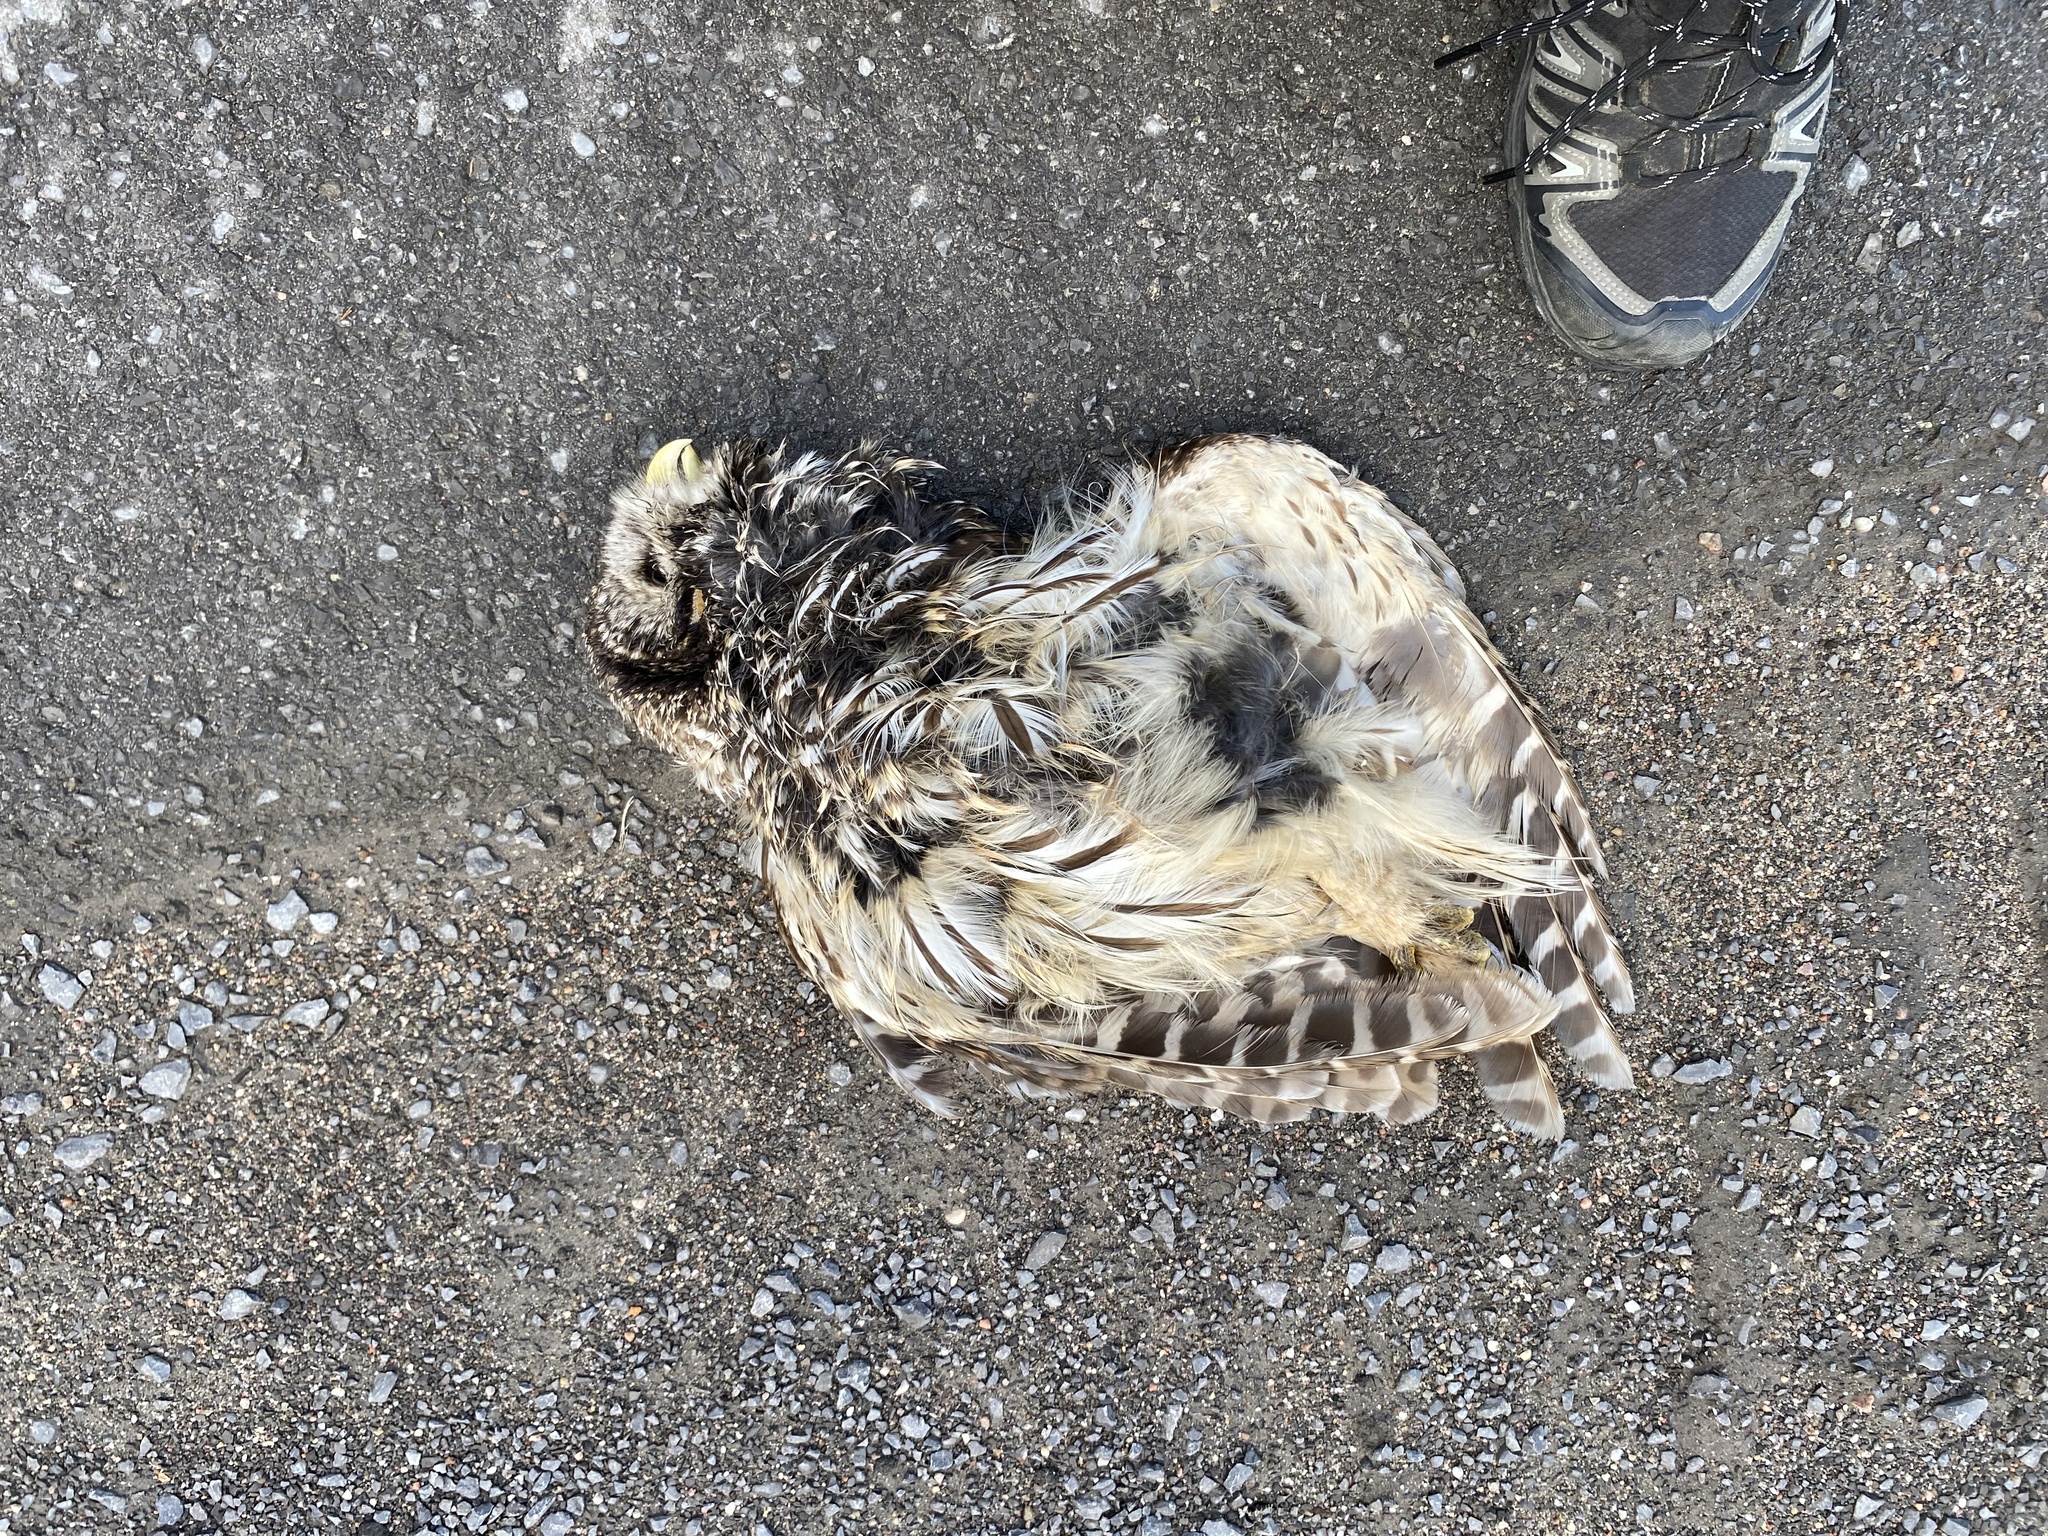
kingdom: Animalia
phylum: Chordata
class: Aves
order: Strigiformes
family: Strigidae
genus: Strix
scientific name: Strix varia
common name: Barred owl
